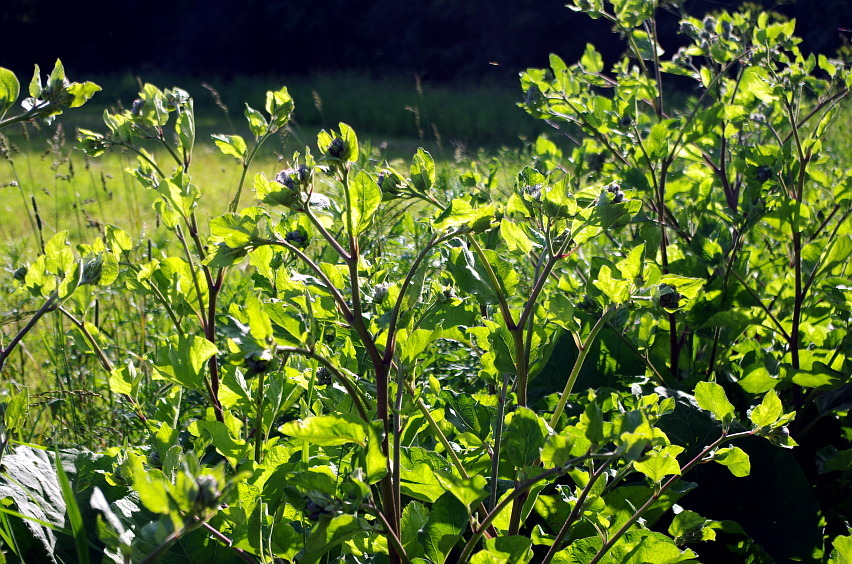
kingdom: Plantae
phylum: Tracheophyta
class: Magnoliopsida
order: Asterales
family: Asteraceae
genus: Arctium
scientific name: Arctium tomentosum
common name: Woolly burdock
